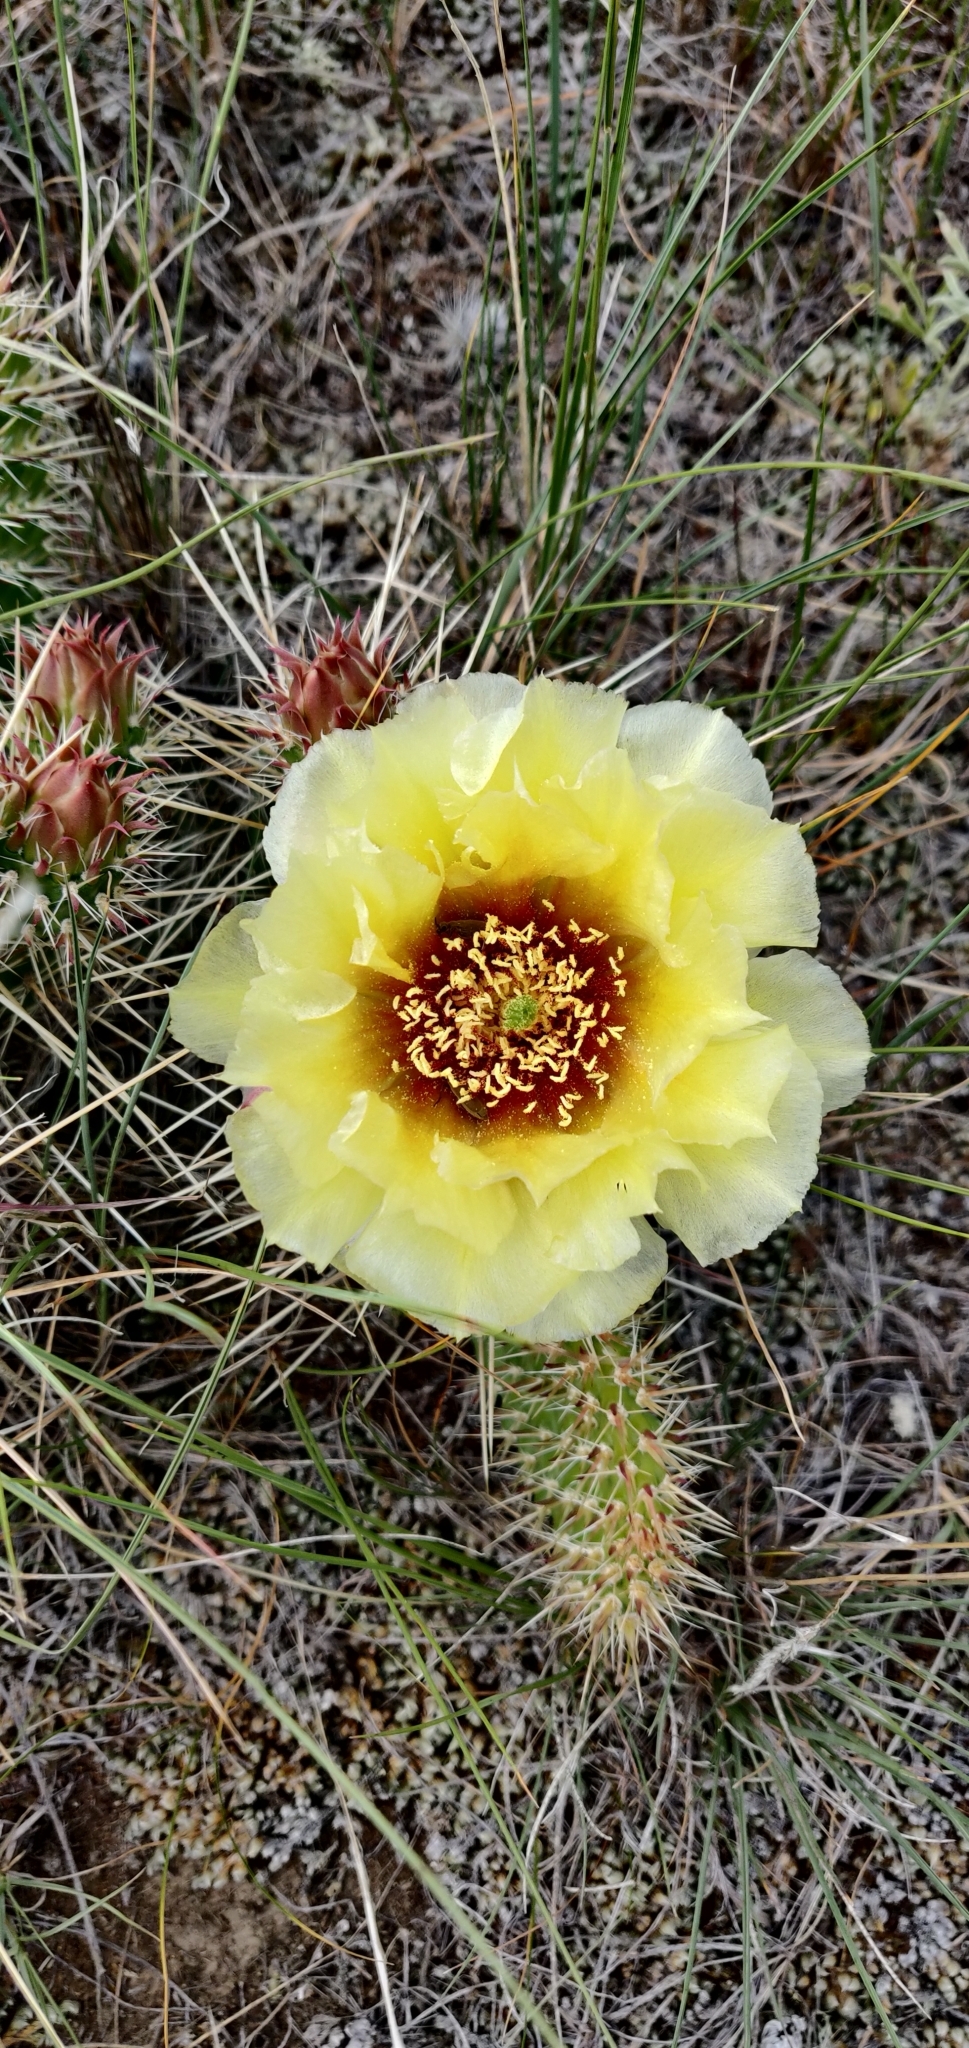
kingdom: Plantae
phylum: Tracheophyta
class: Magnoliopsida
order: Caryophyllales
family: Cactaceae
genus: Opuntia
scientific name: Opuntia polyacantha
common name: Plains prickly-pear
